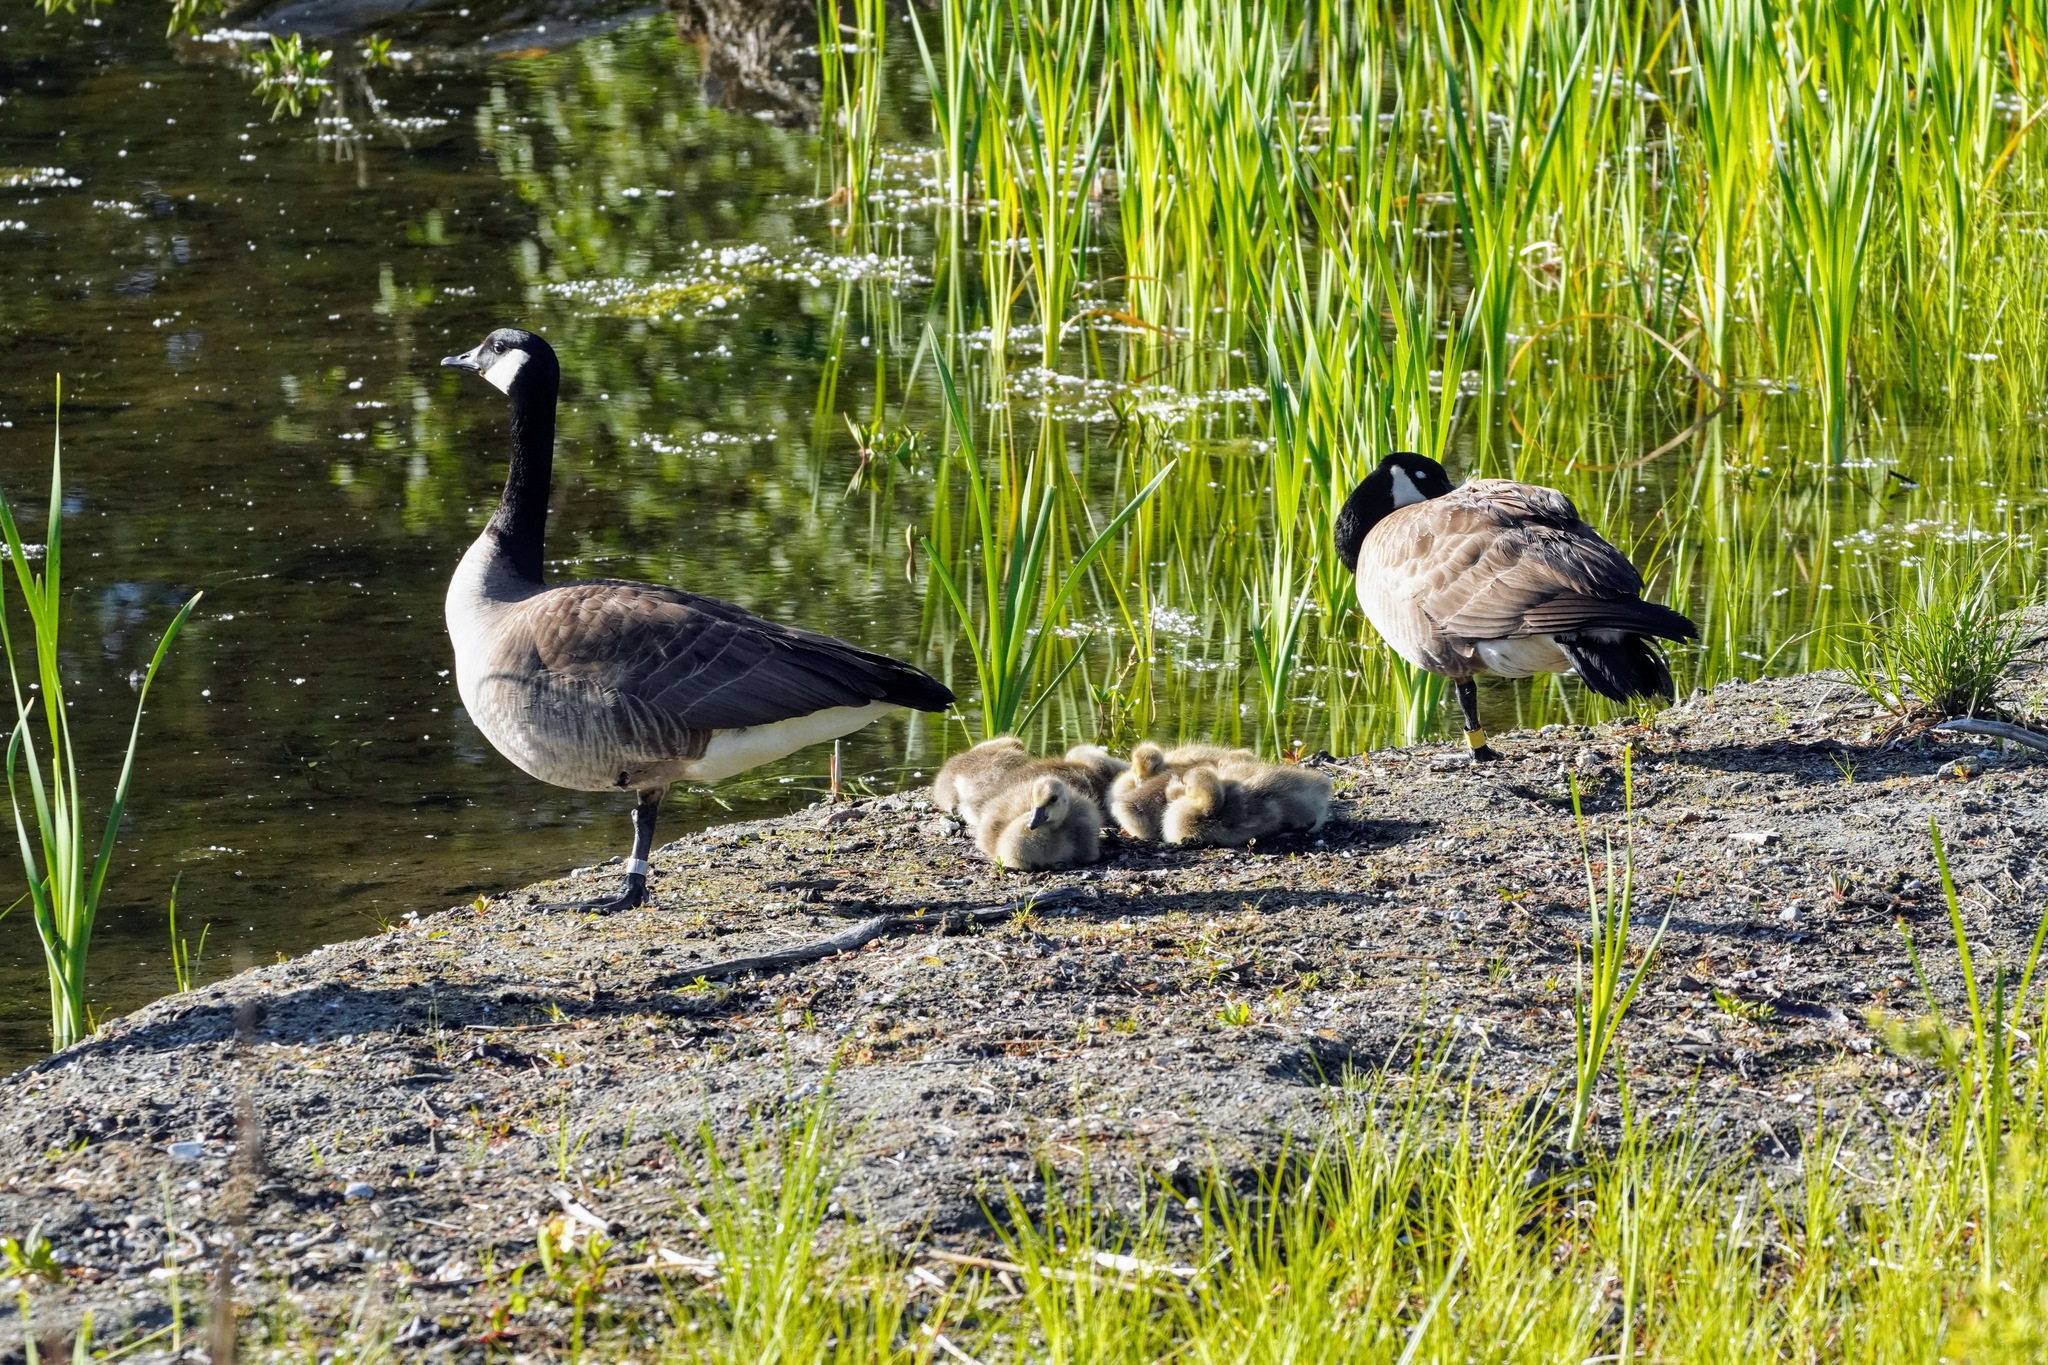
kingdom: Animalia
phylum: Chordata
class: Aves
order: Anseriformes
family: Anatidae
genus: Branta
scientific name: Branta canadensis
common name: Canada goose
